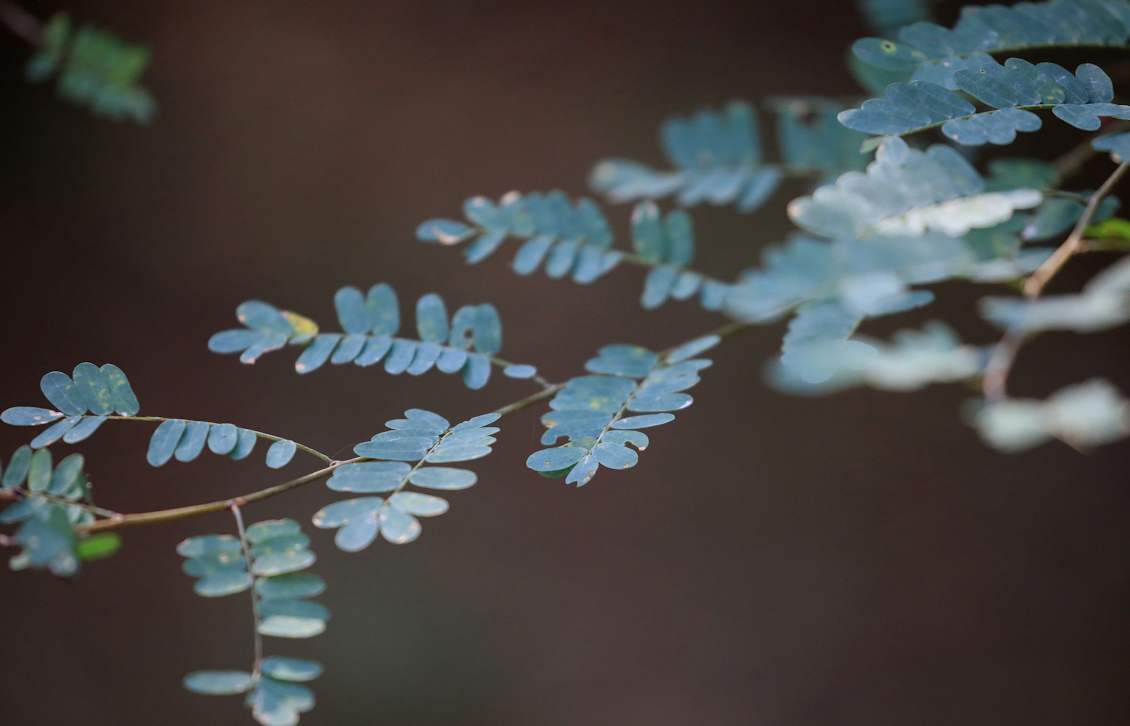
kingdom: Plantae
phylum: Tracheophyta
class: Magnoliopsida
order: Fabales
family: Fabaceae
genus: Dalbergia
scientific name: Dalbergia armata
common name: Hluhluwe climber
